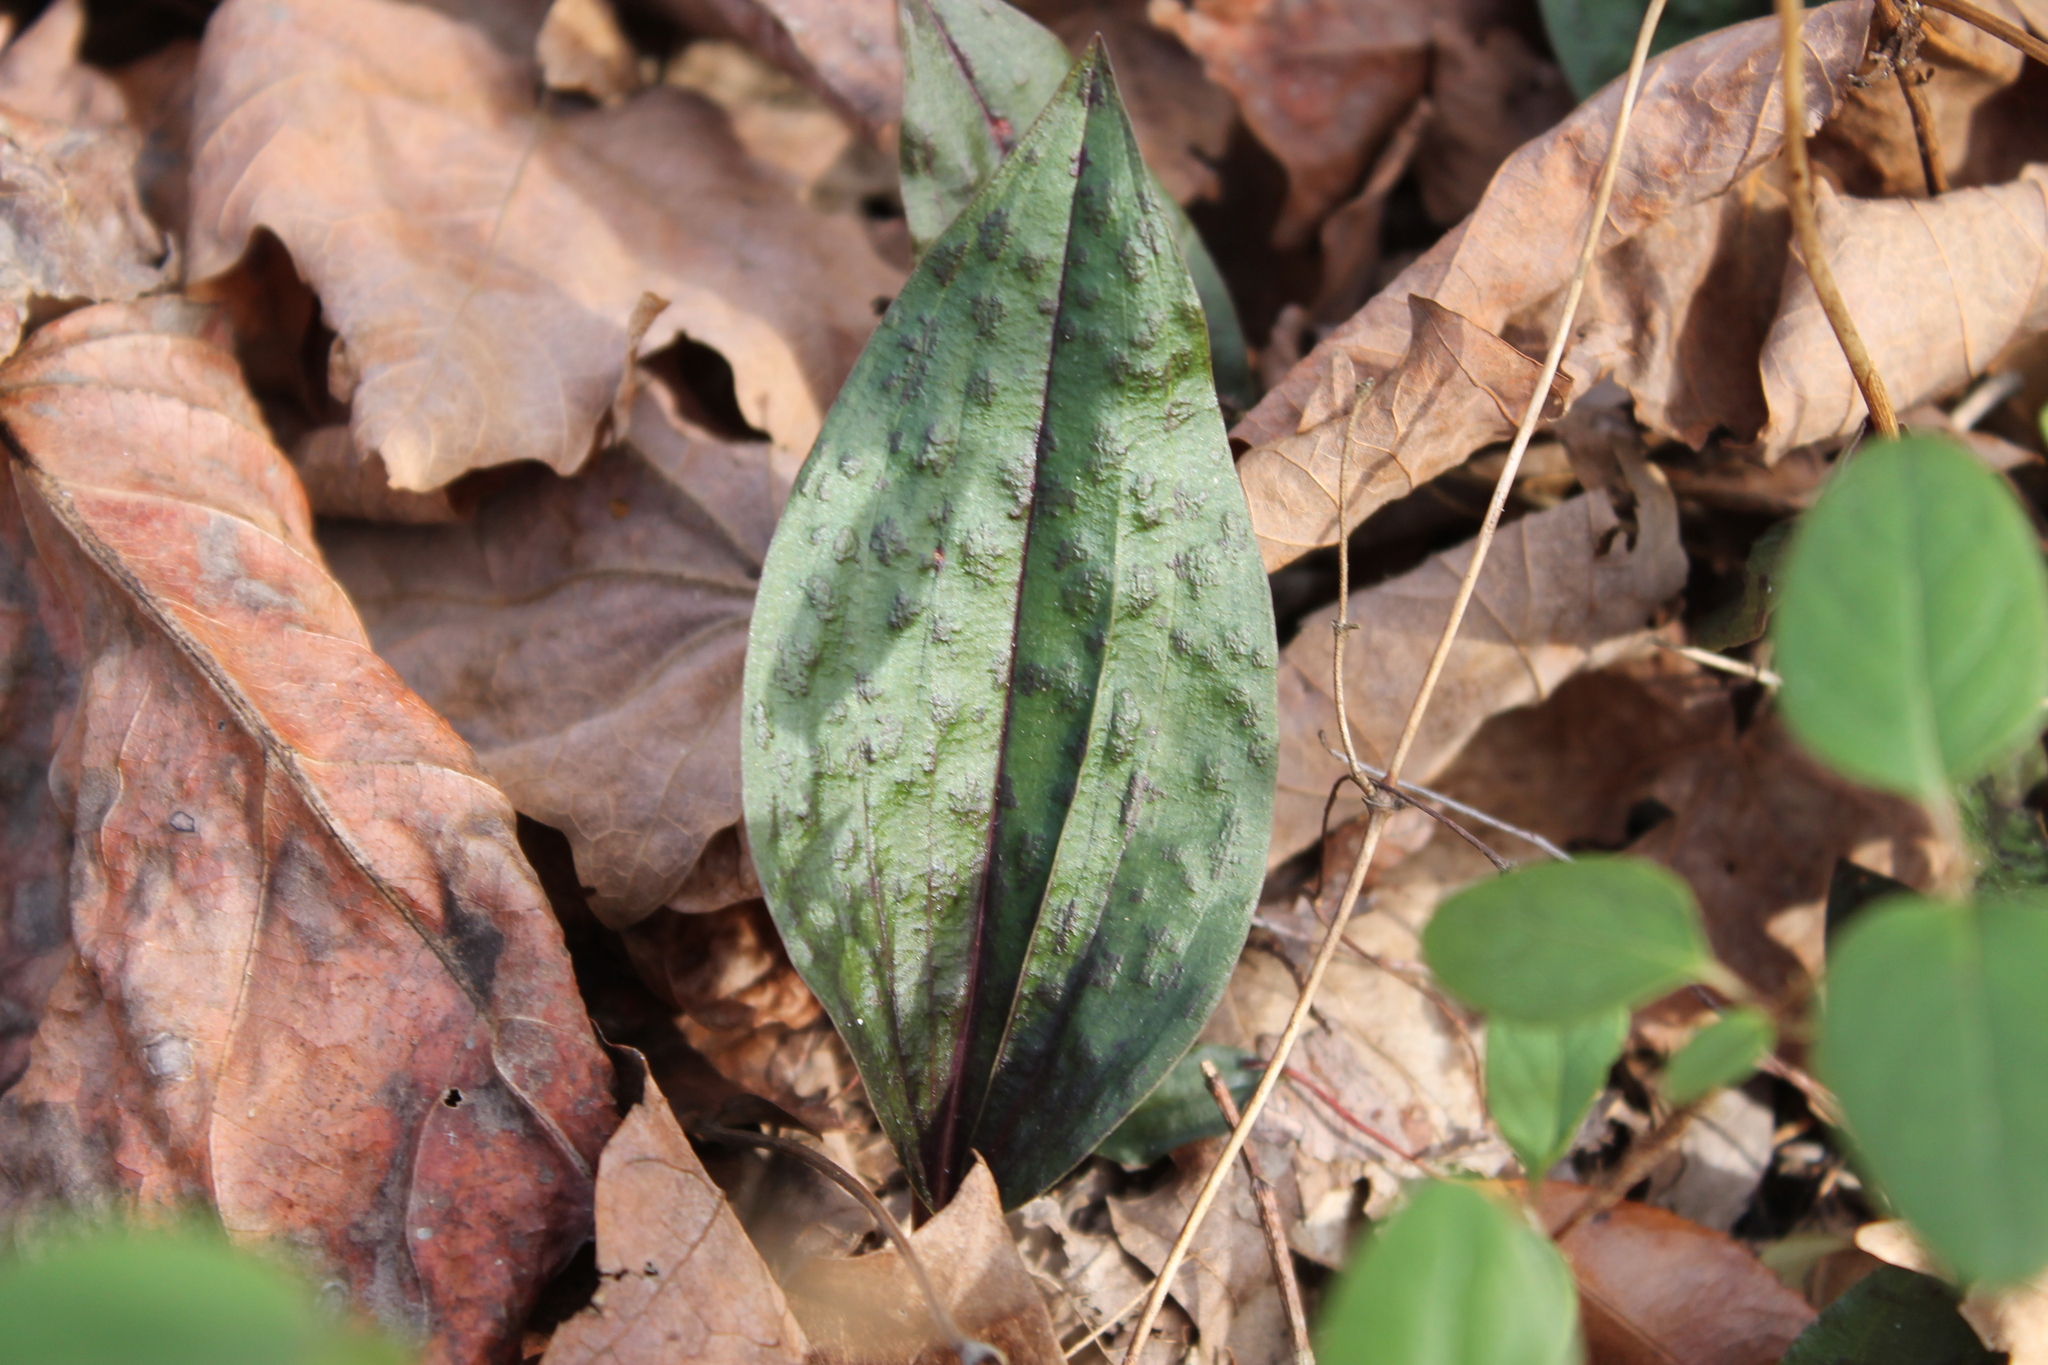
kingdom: Plantae
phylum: Tracheophyta
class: Liliopsida
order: Asparagales
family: Orchidaceae
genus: Tipularia
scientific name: Tipularia discolor
